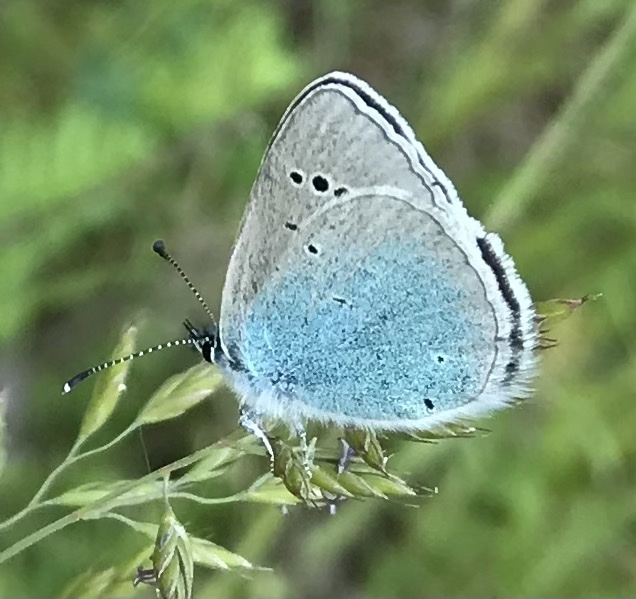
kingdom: Animalia
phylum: Arthropoda
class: Insecta
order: Lepidoptera
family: Lycaenidae
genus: Glaucopsyche
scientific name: Glaucopsyche alexis
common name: Green-underside blue
